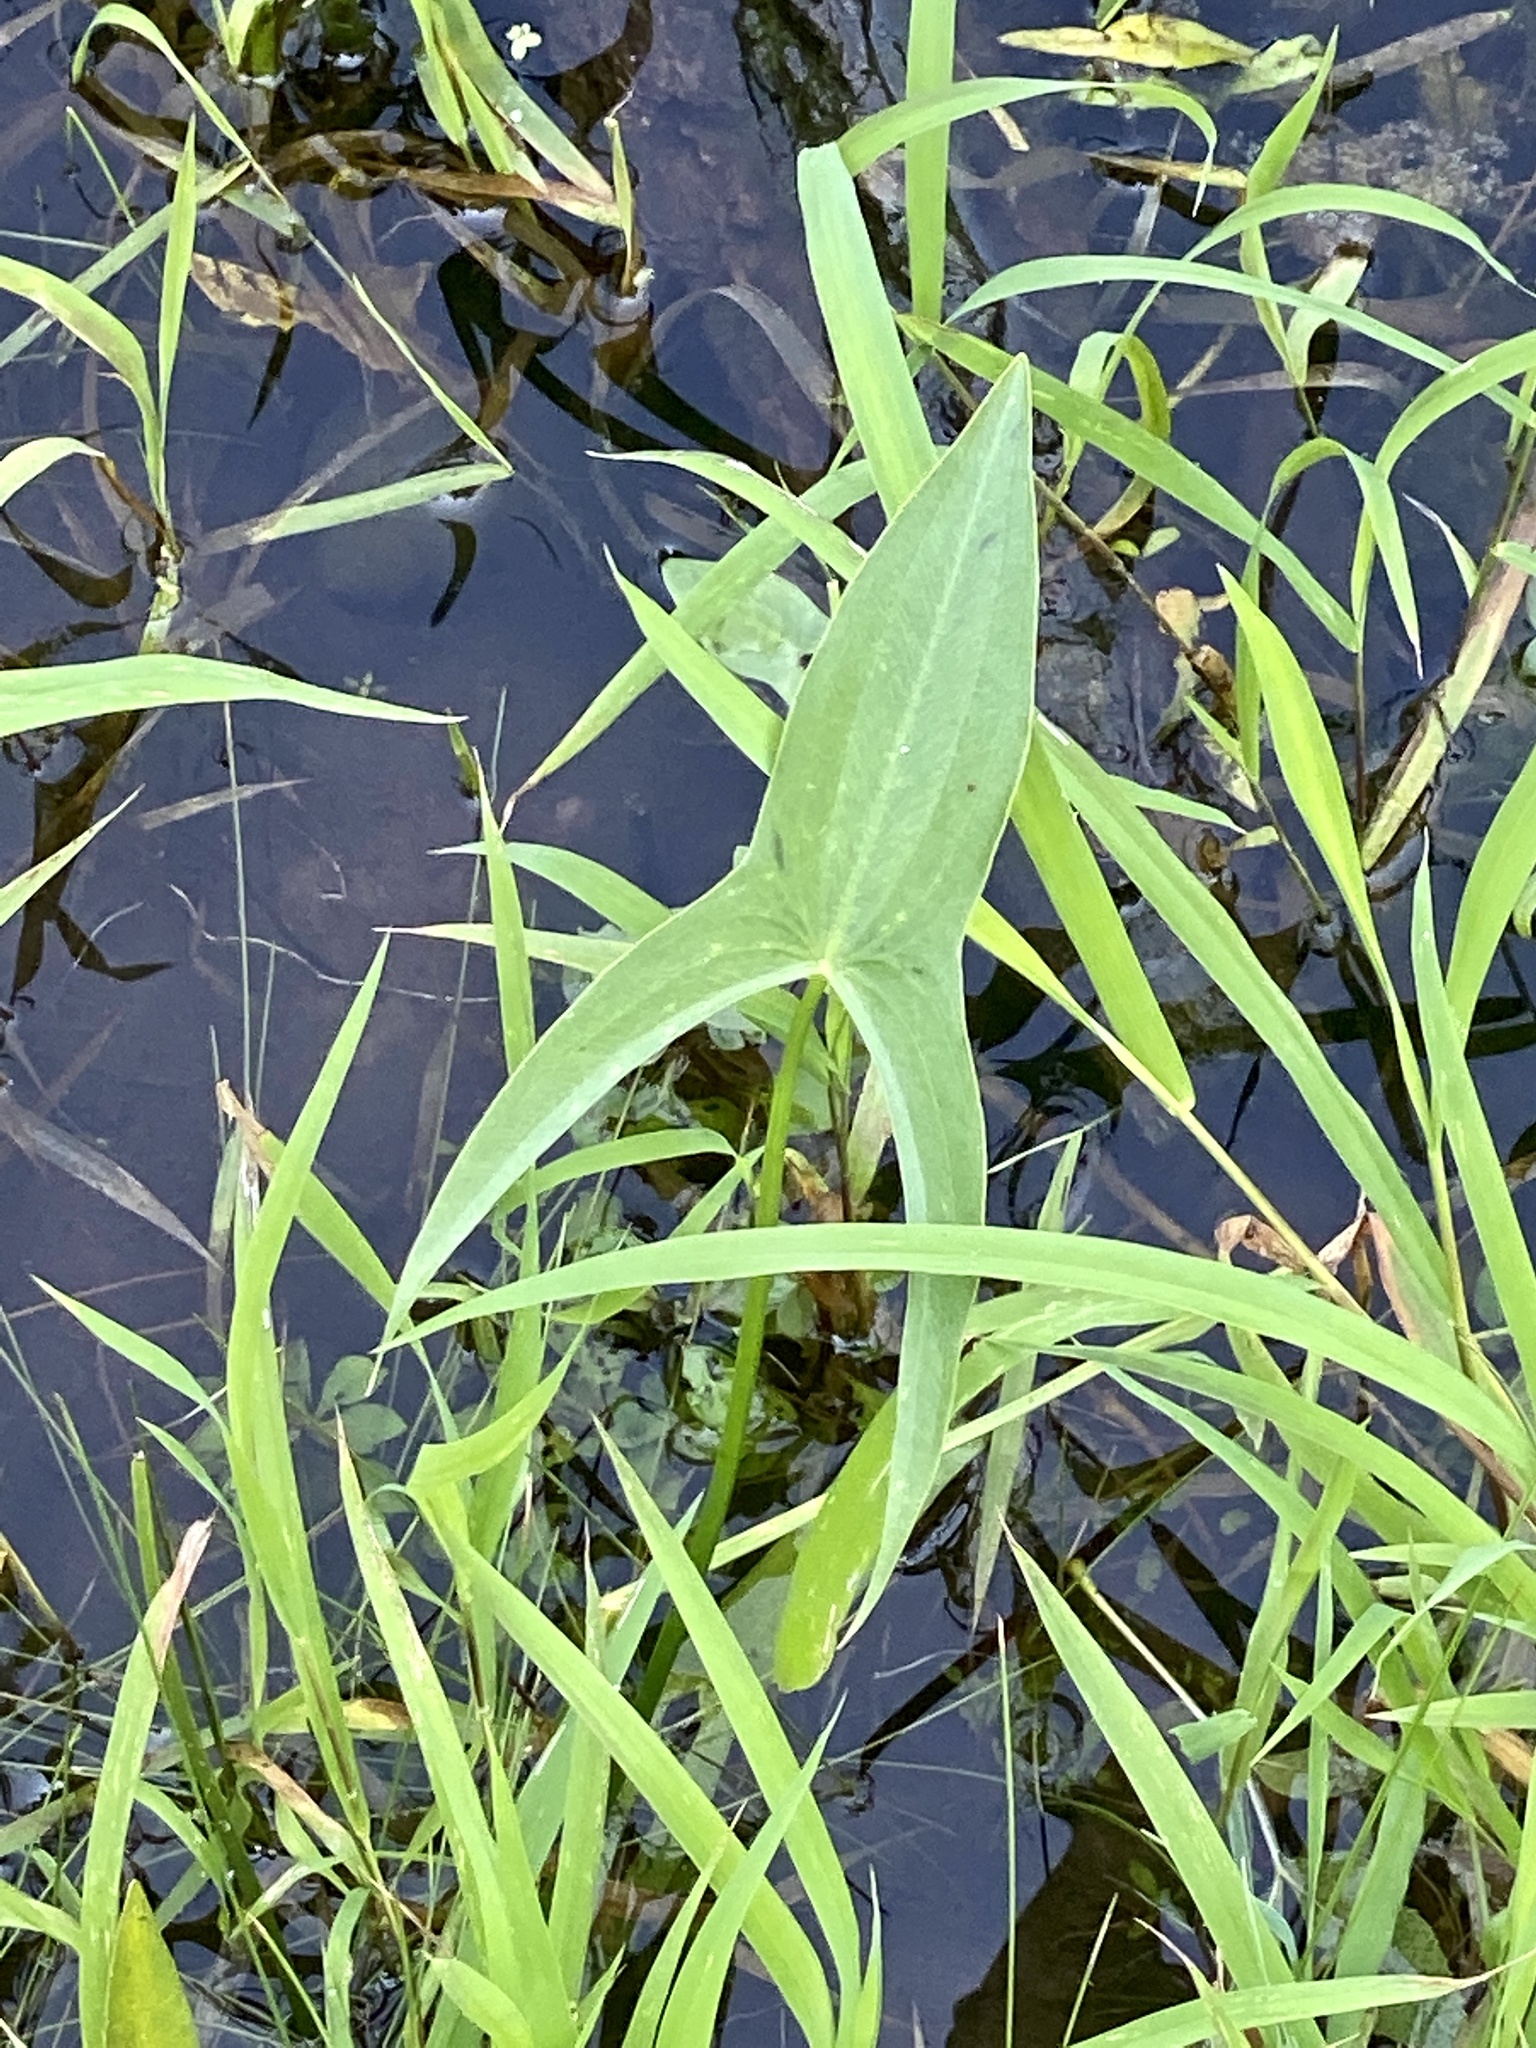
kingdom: Plantae
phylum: Tracheophyta
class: Liliopsida
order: Alismatales
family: Alismataceae
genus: Sagittaria
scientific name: Sagittaria latifolia
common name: Duck-potato
